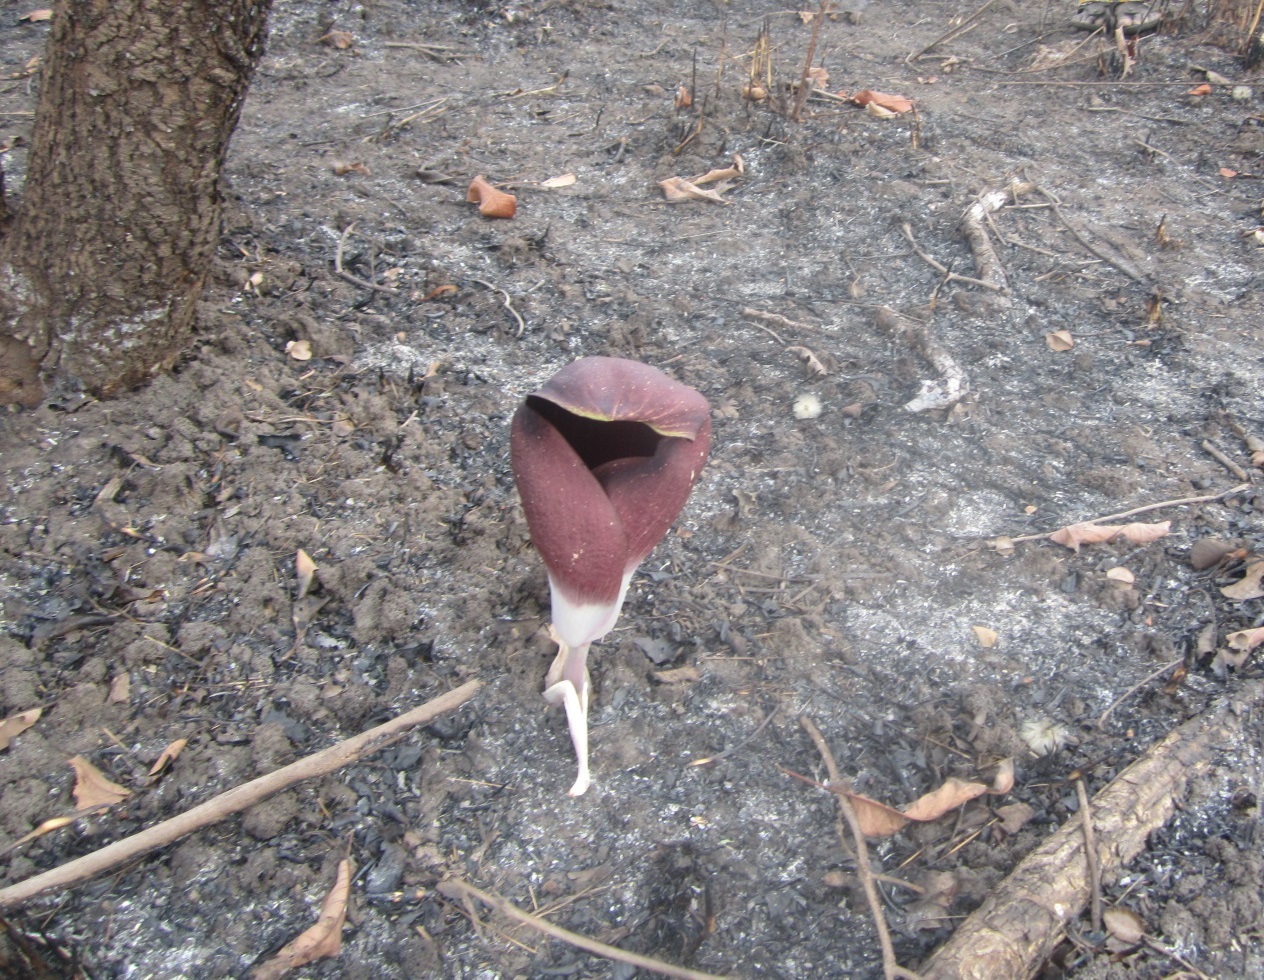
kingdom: Plantae
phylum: Tracheophyta
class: Liliopsida
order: Alismatales
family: Araceae
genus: Amorphophallus
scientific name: Amorphophallus dracontioides
